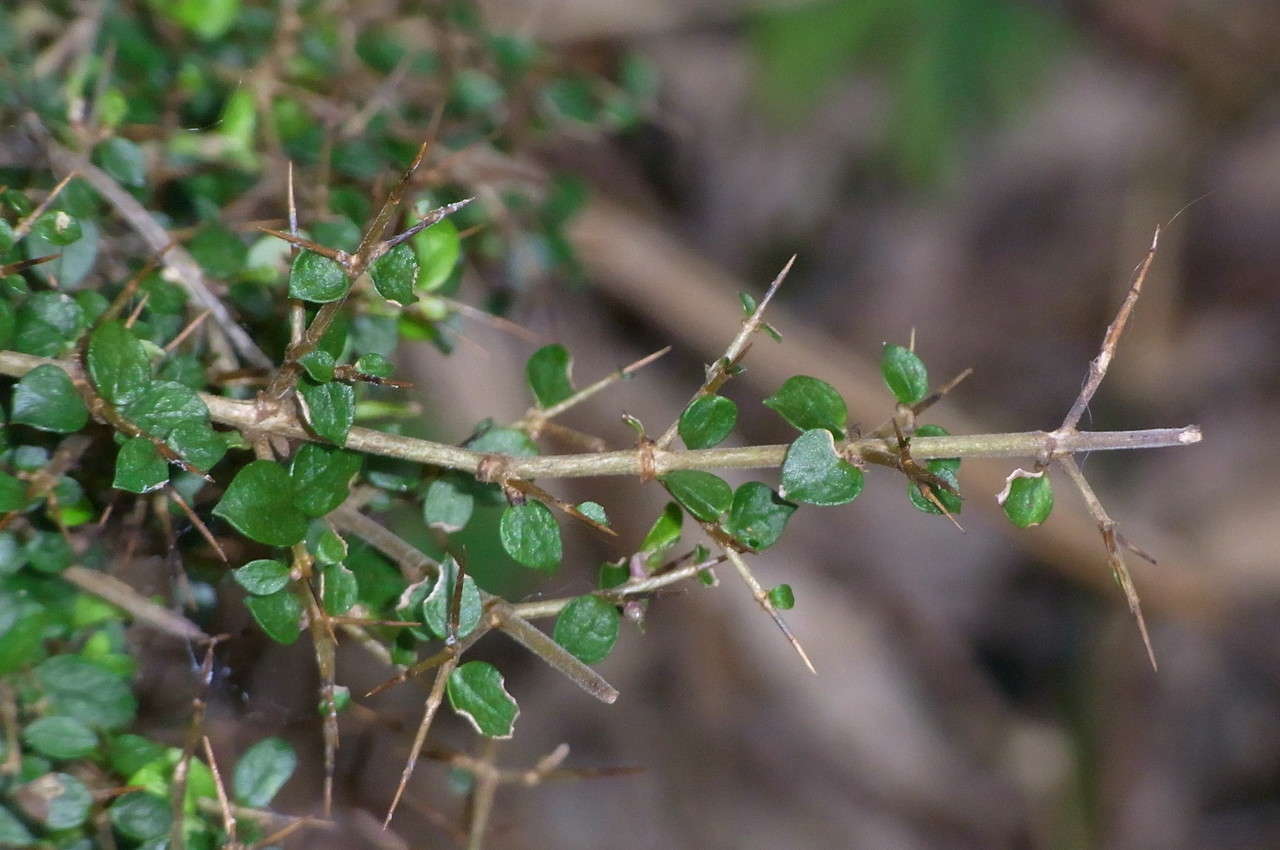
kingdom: Plantae
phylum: Tracheophyta
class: Magnoliopsida
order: Gentianales
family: Rubiaceae
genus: Coprosma
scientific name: Coprosma quadrifida
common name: Prickly currantbush
